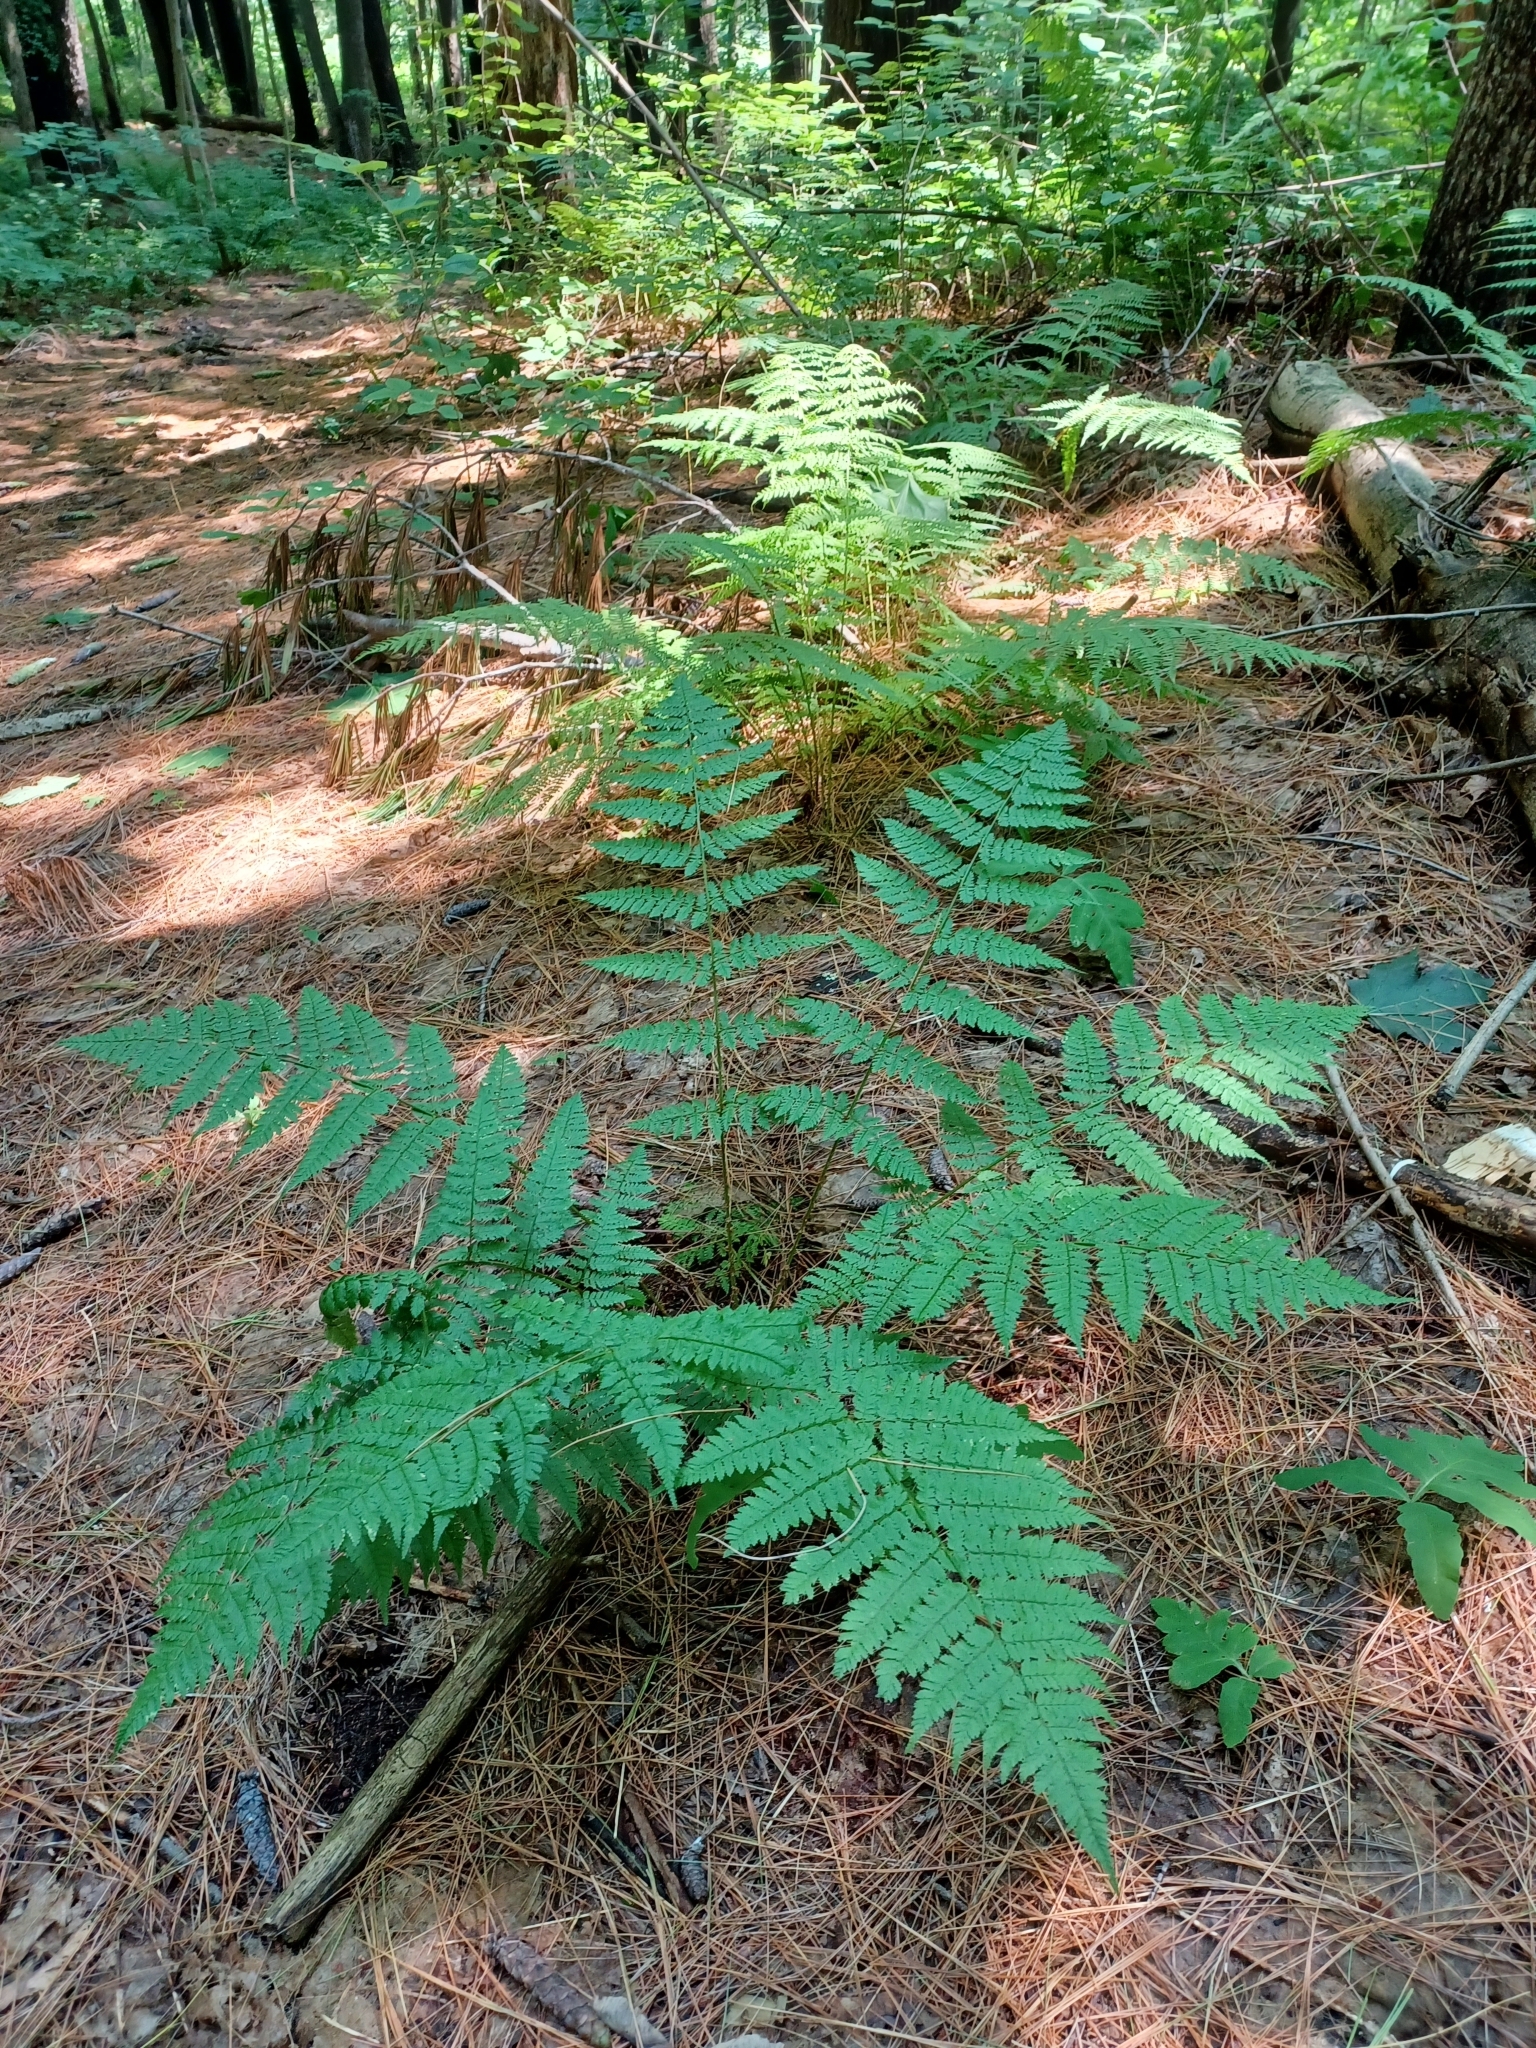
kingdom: Plantae
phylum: Tracheophyta
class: Polypodiopsida
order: Polypodiales
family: Dryopteridaceae
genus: Dryopteris
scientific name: Dryopteris intermedia
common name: Evergreen wood fern
